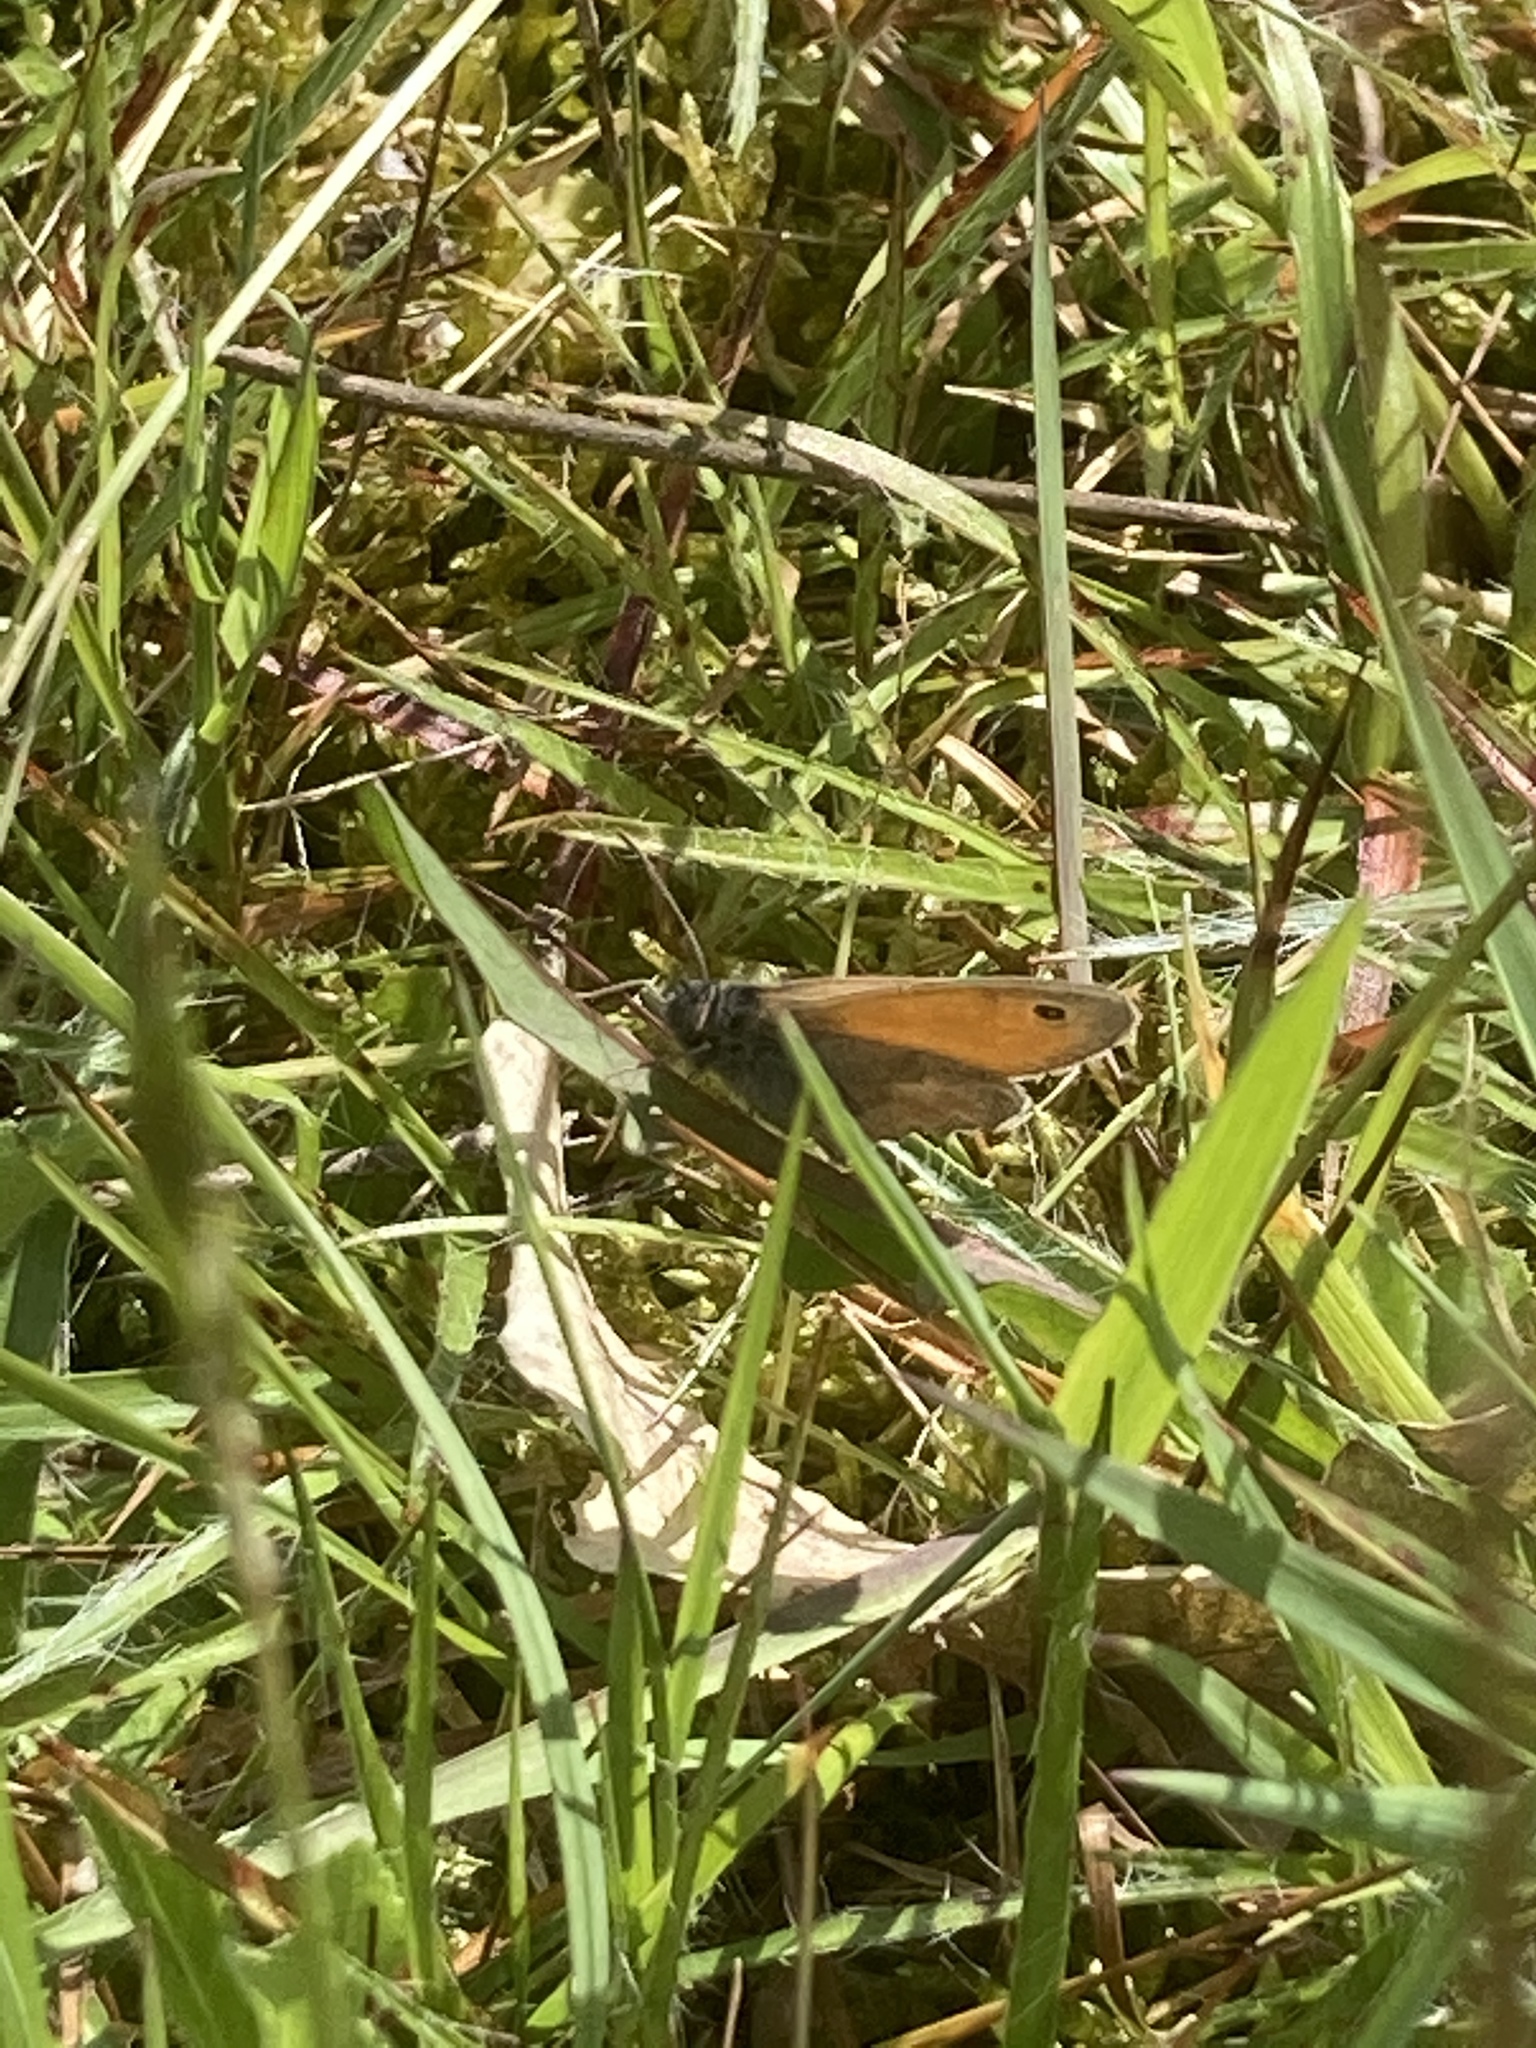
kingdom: Animalia
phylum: Arthropoda
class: Insecta
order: Lepidoptera
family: Nymphalidae
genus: Coenonympha
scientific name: Coenonympha pamphilus
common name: Small heath
